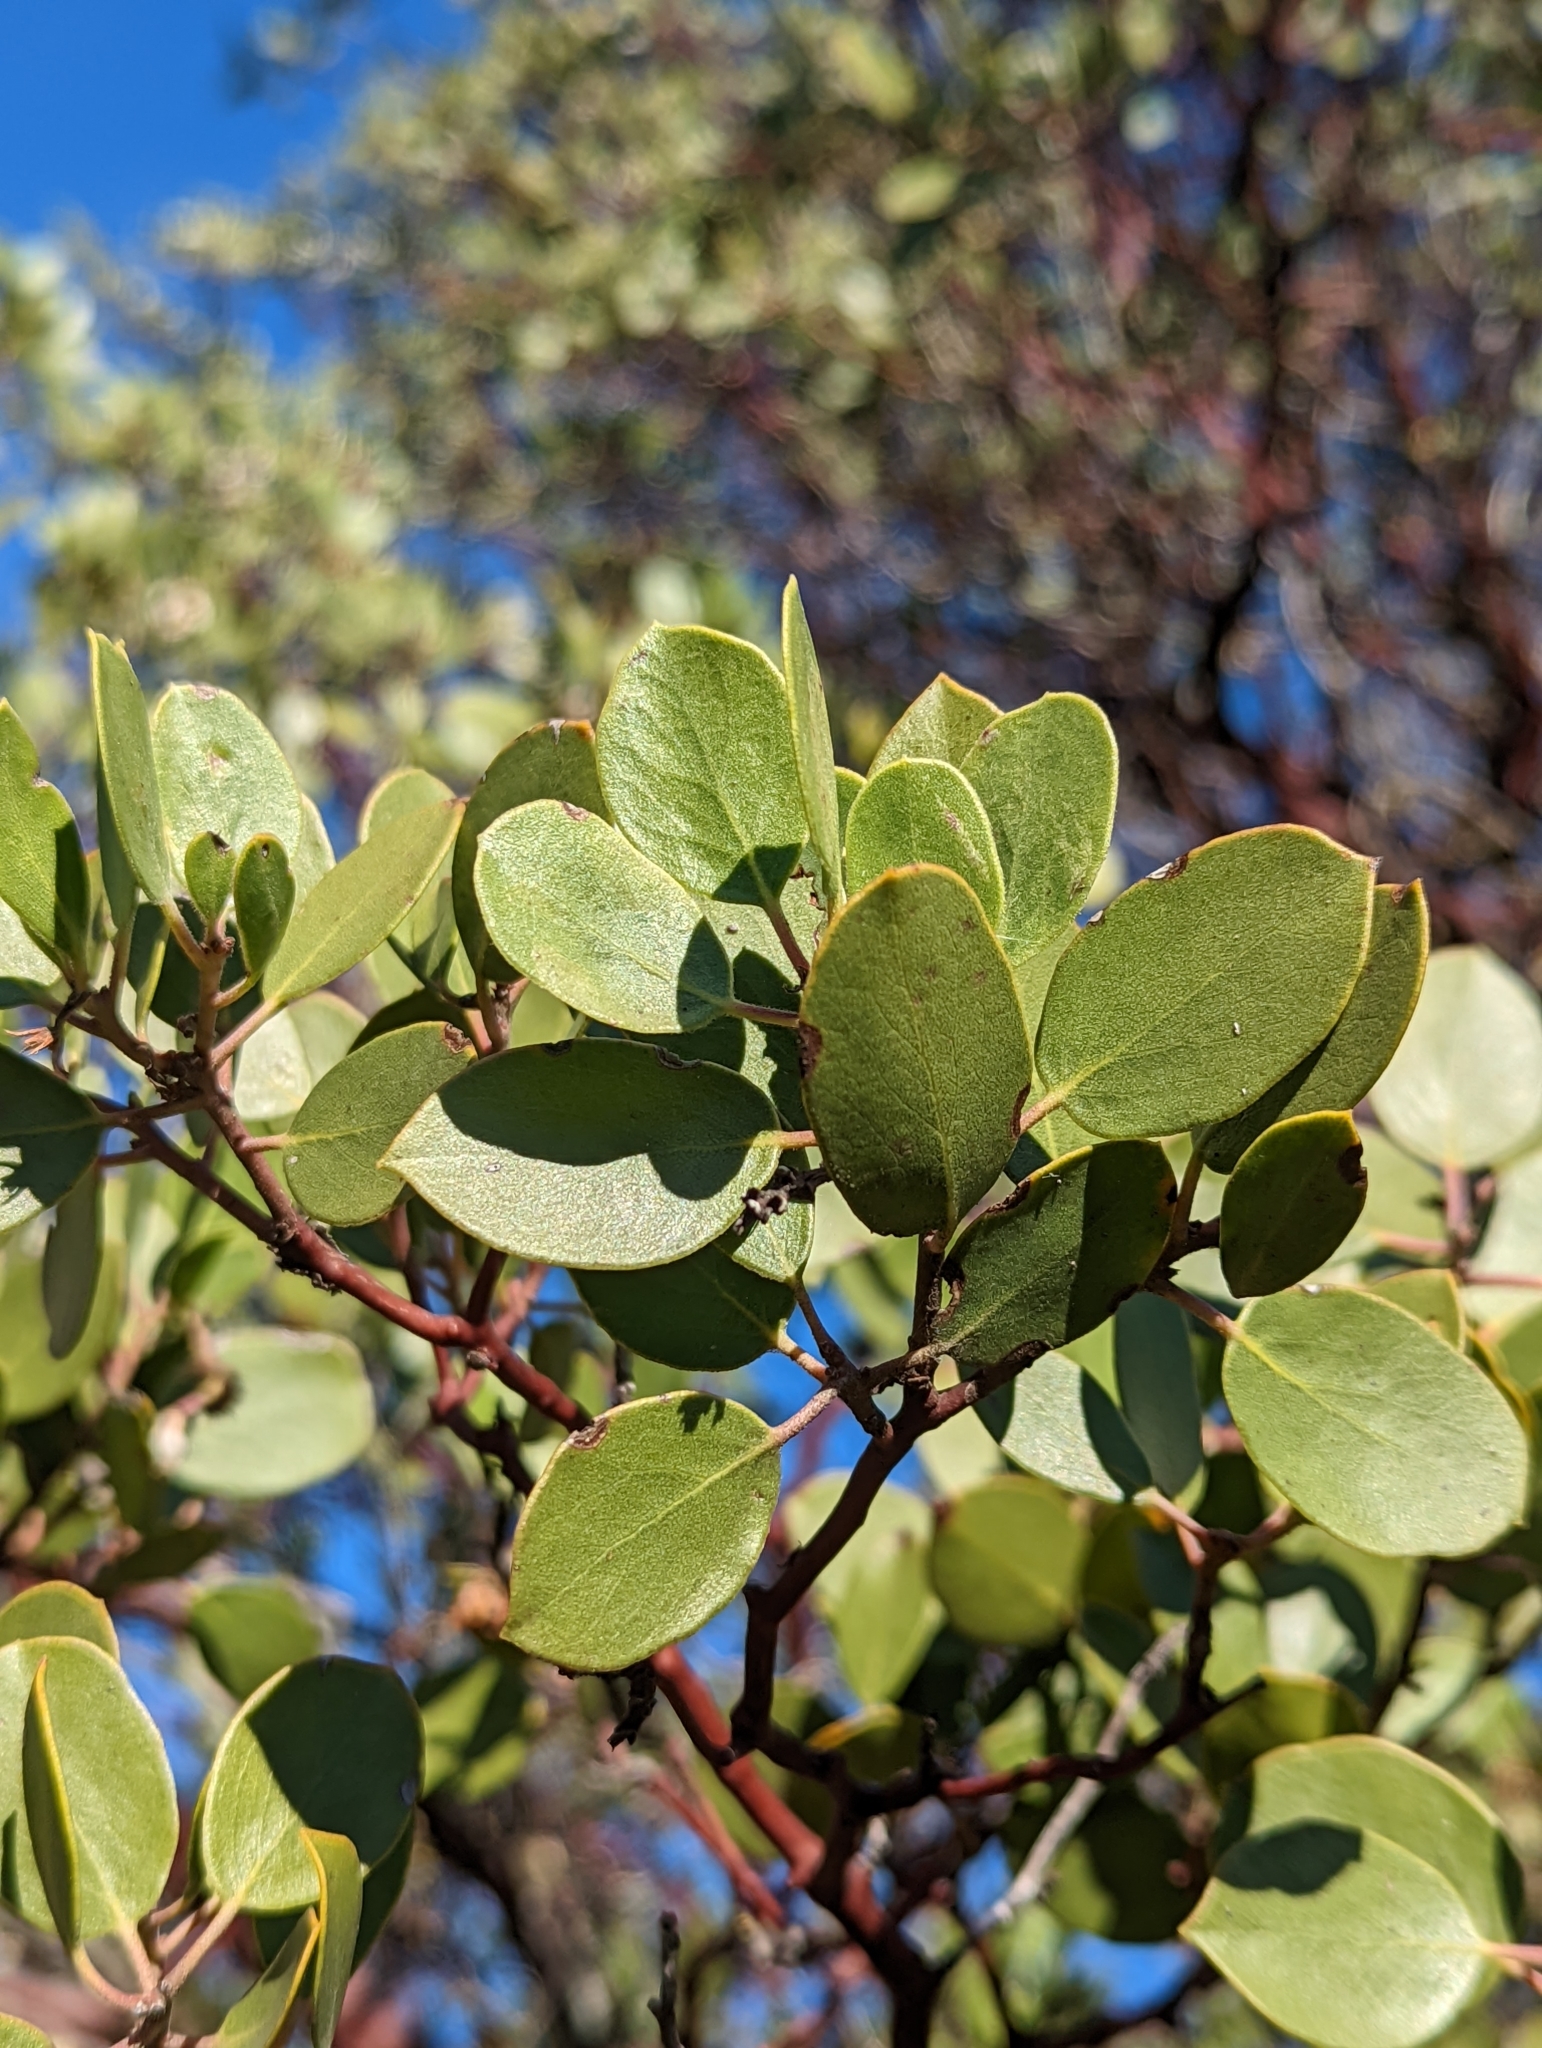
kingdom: Plantae
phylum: Tracheophyta
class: Magnoliopsida
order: Ericales
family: Ericaceae
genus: Arctostaphylos
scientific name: Arctostaphylos manzanita
